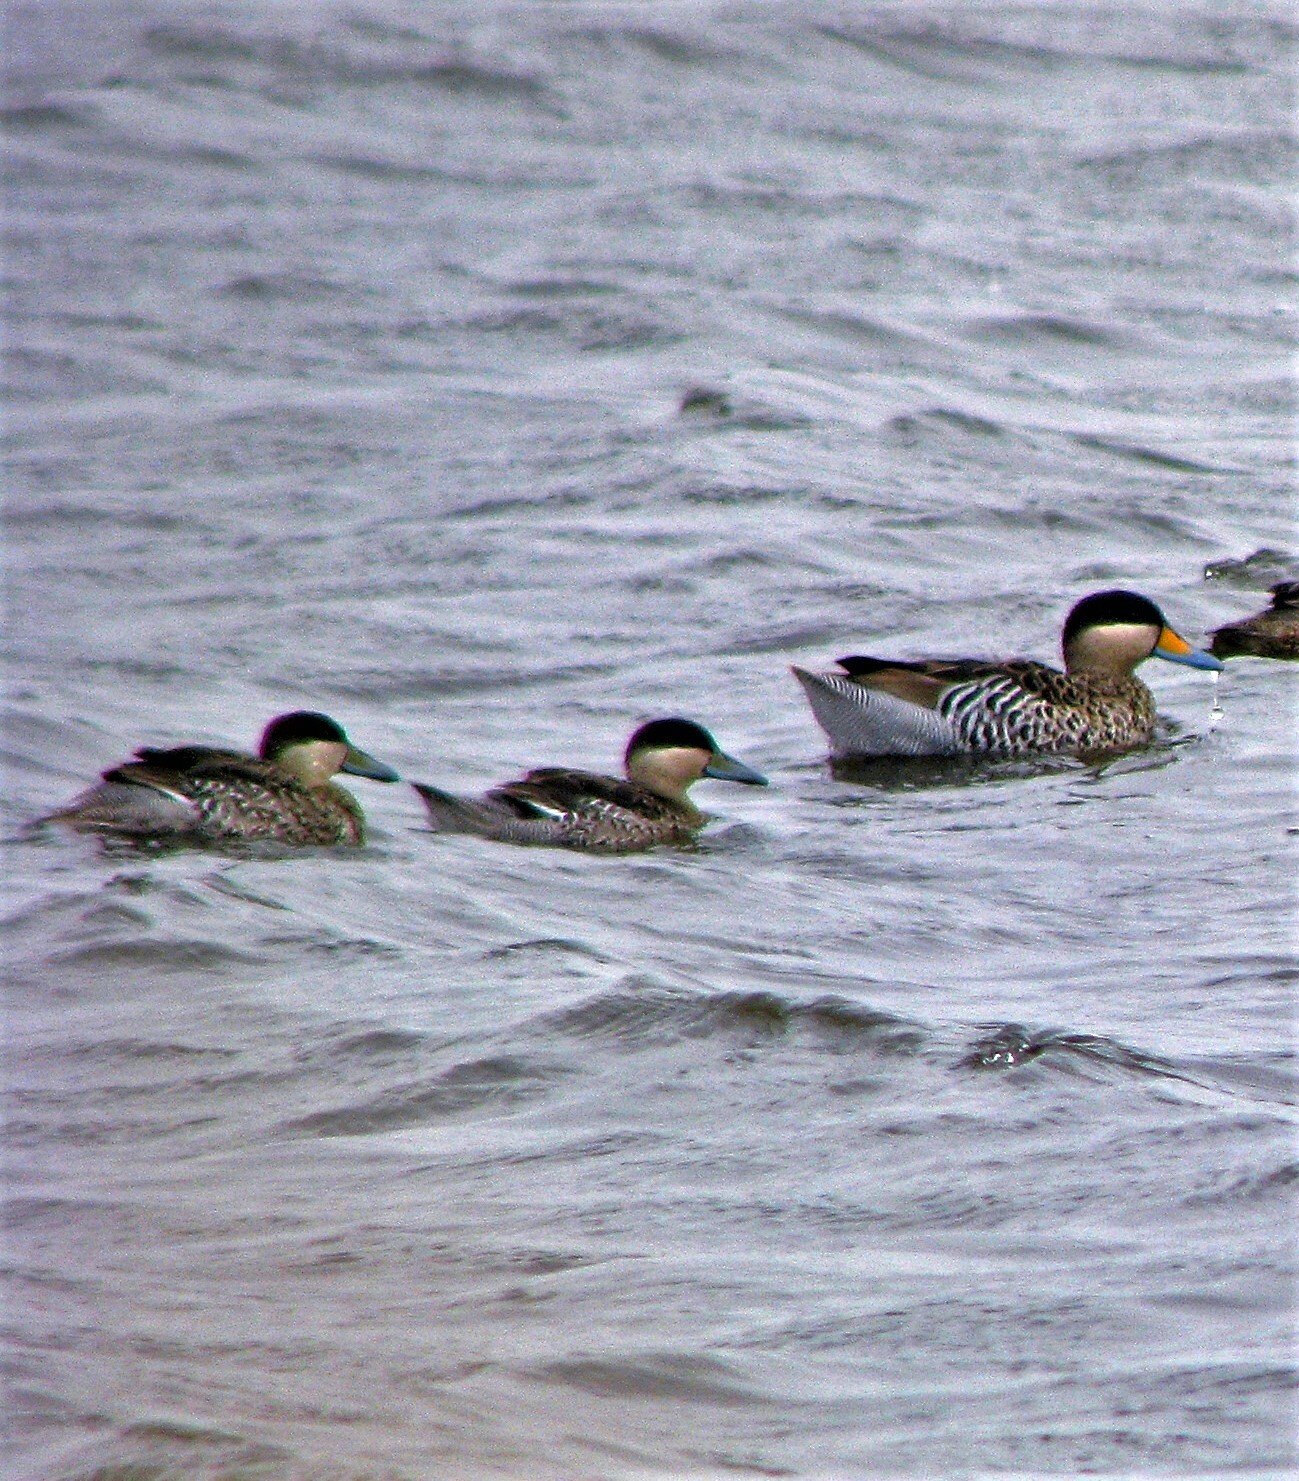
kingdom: Animalia
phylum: Chordata
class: Aves
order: Anseriformes
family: Anatidae
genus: Spatula
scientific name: Spatula versicolor
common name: Silver teal
